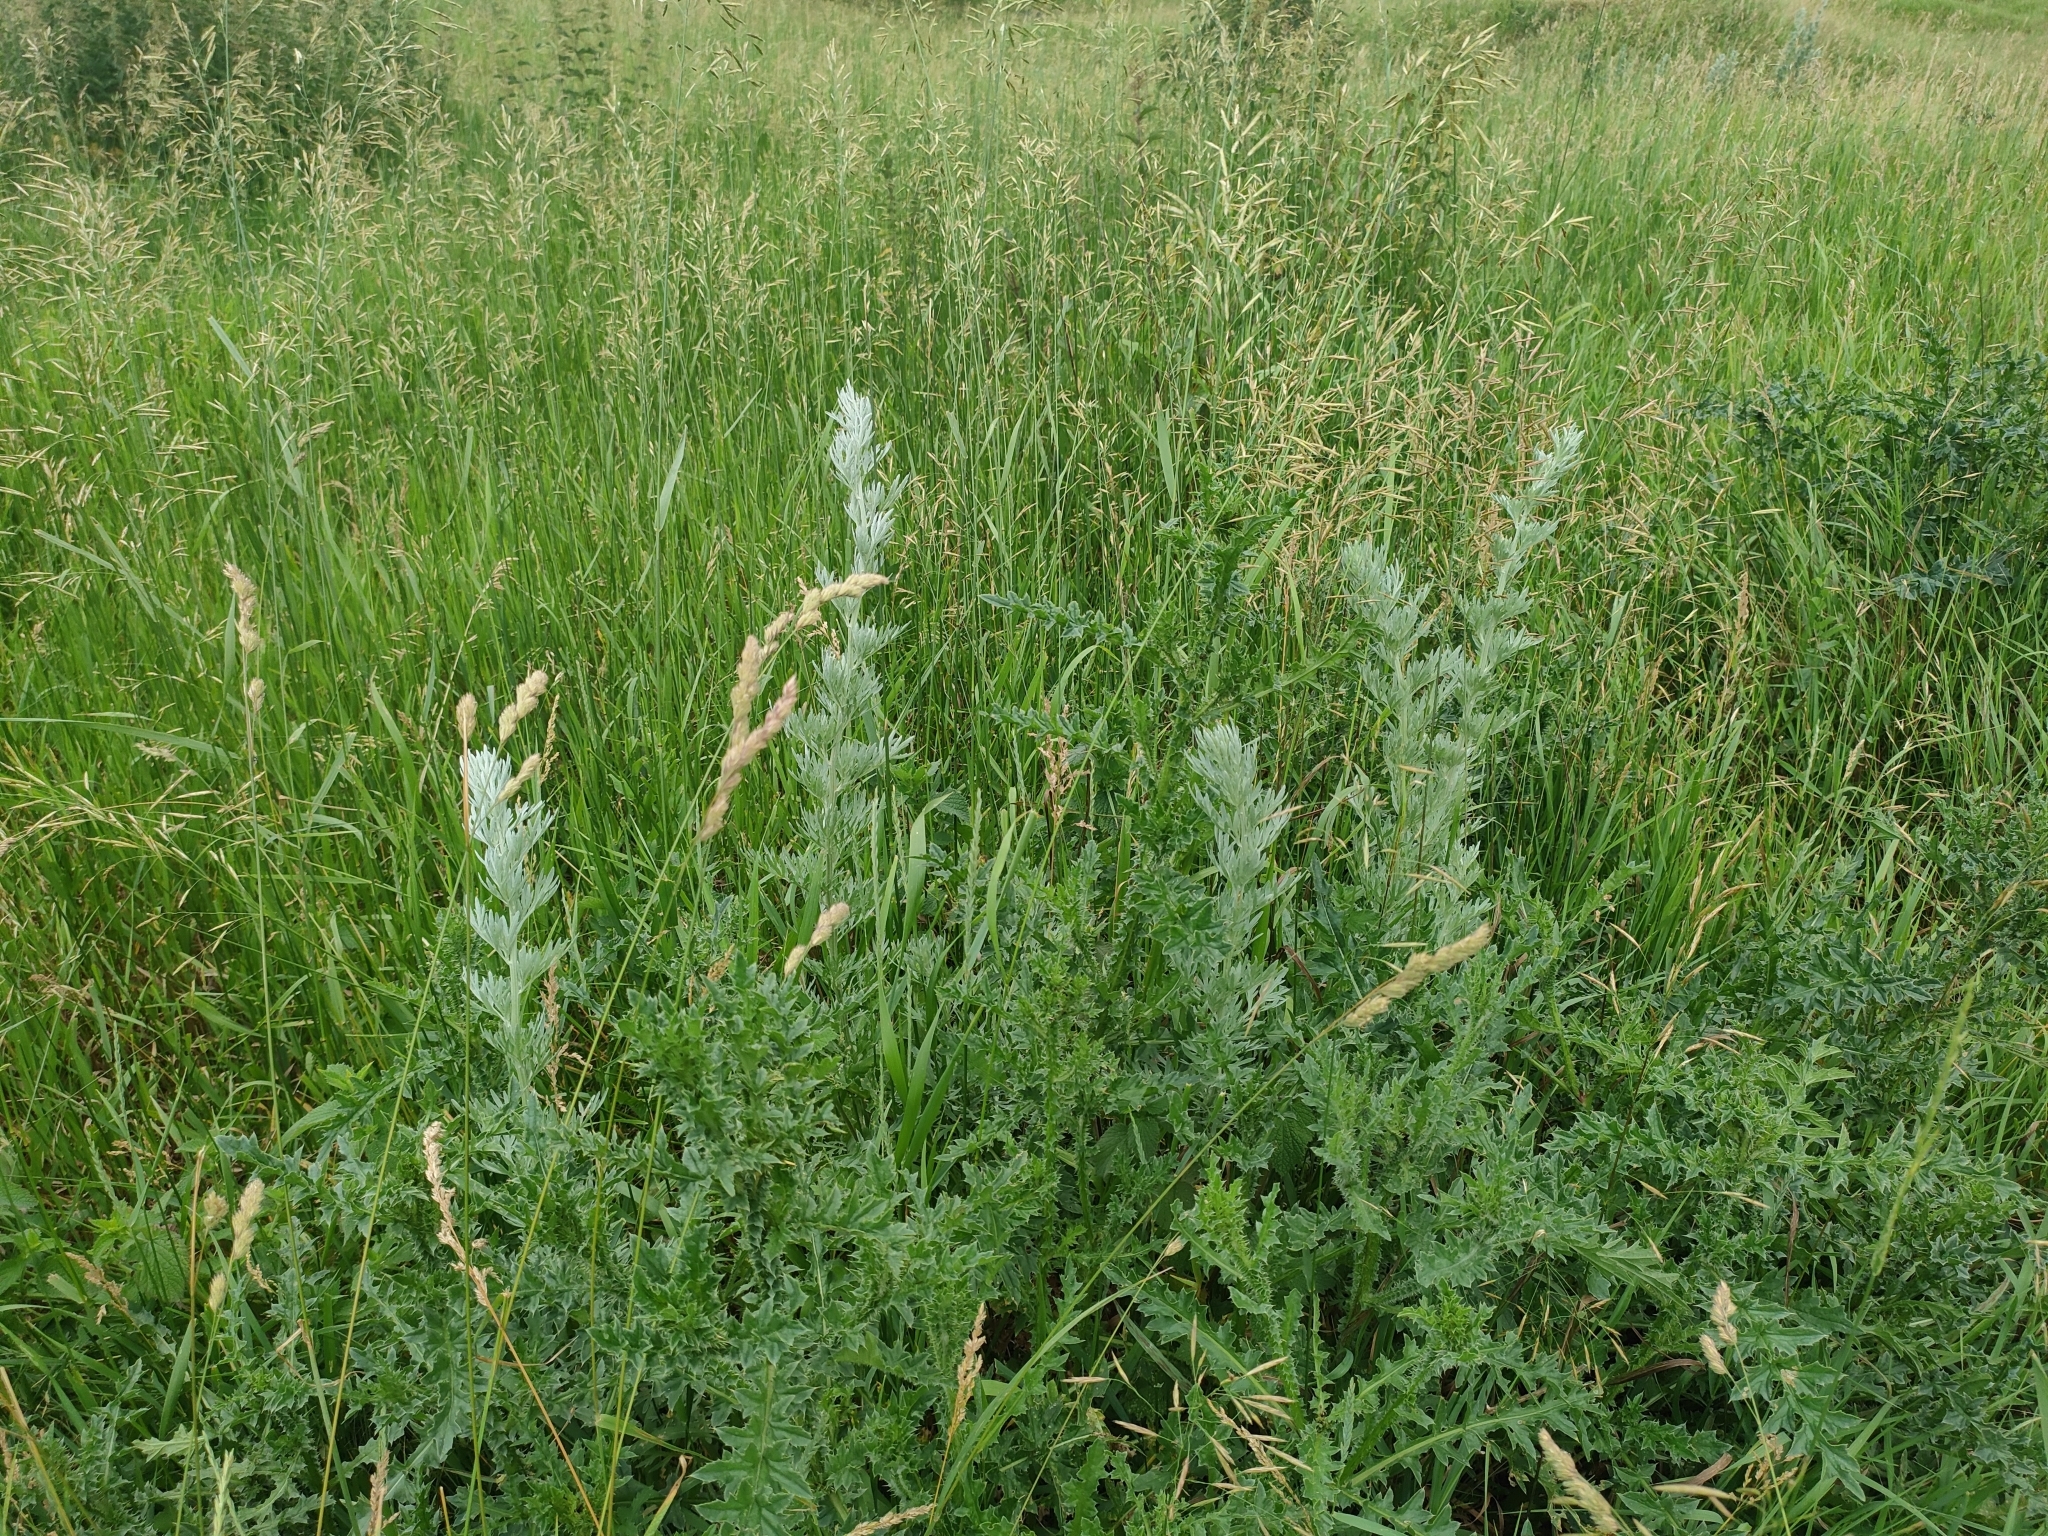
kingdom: Plantae
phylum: Tracheophyta
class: Magnoliopsida
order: Asterales
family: Asteraceae
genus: Artemisia
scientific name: Artemisia absinthium
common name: Wormwood
